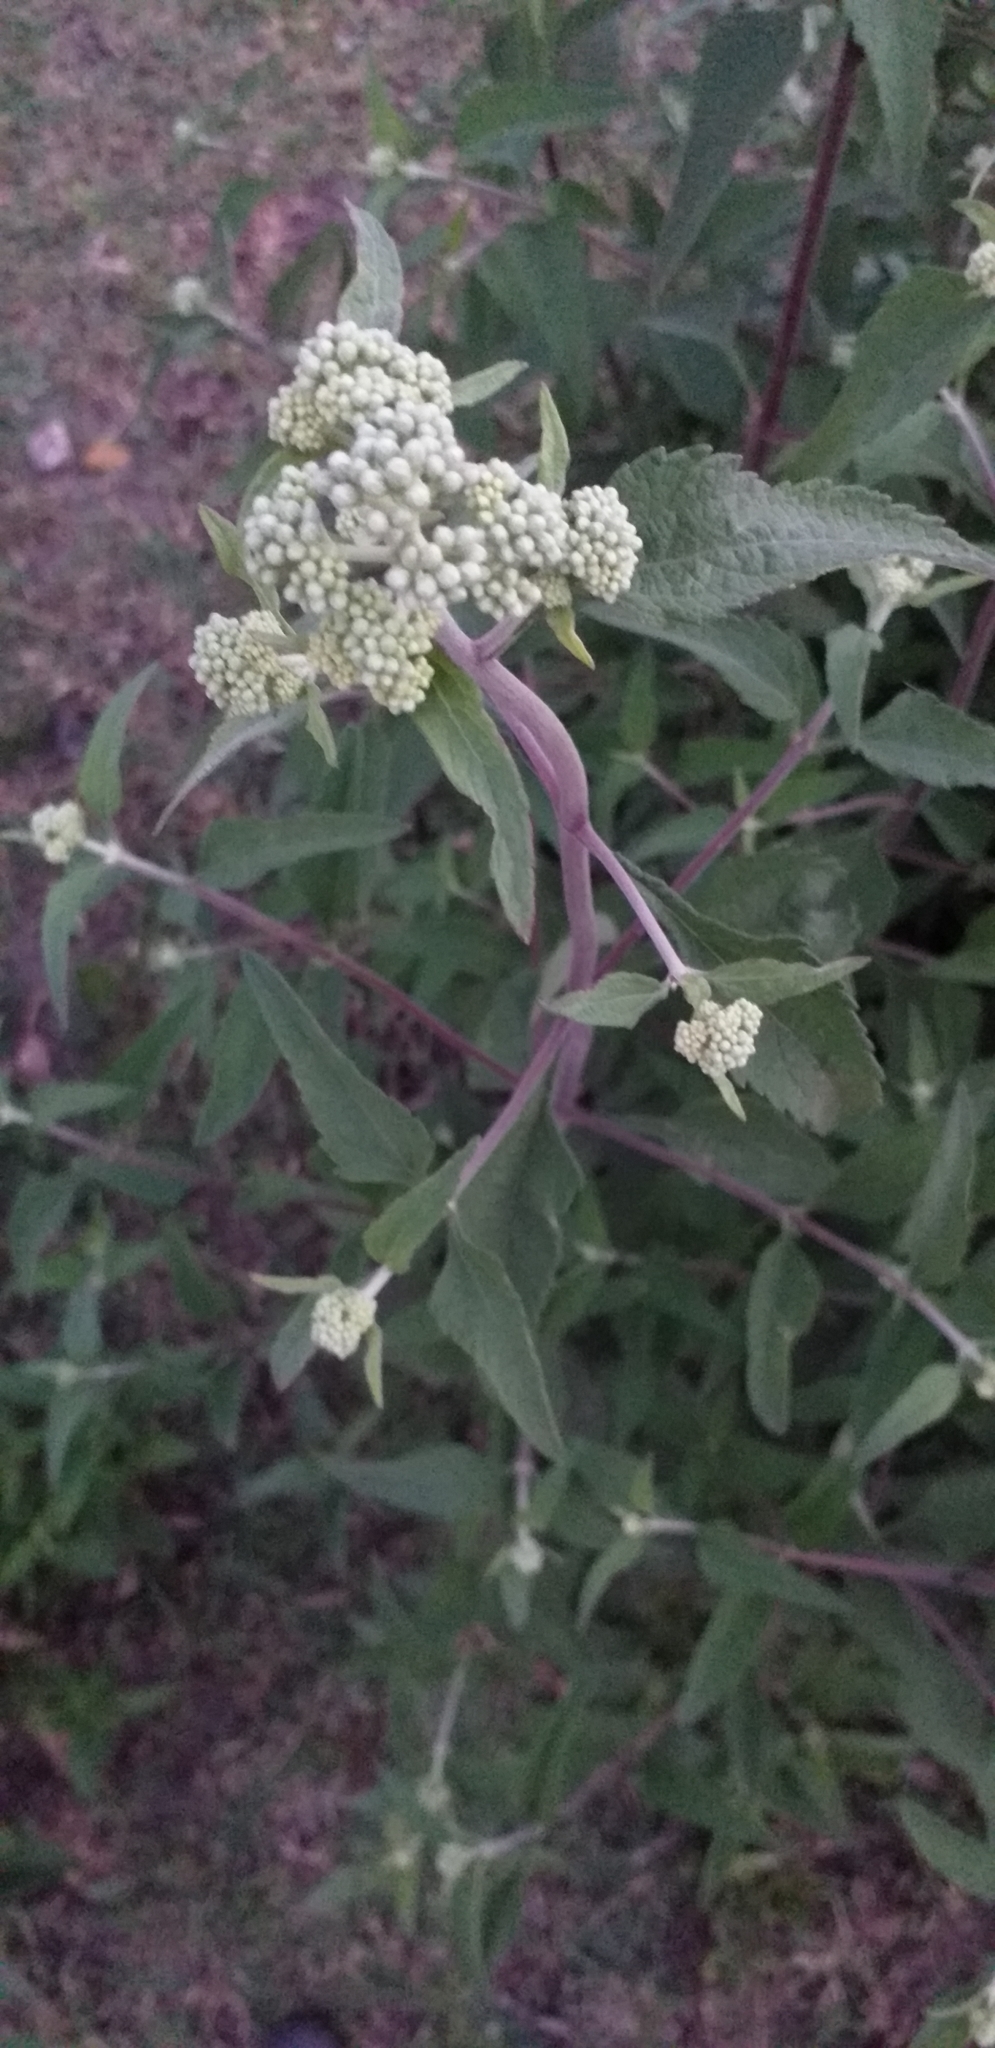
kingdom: Plantae
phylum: Tracheophyta
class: Magnoliopsida
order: Asterales
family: Asteraceae
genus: Austroeupatorium
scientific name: Austroeupatorium inulifolium
